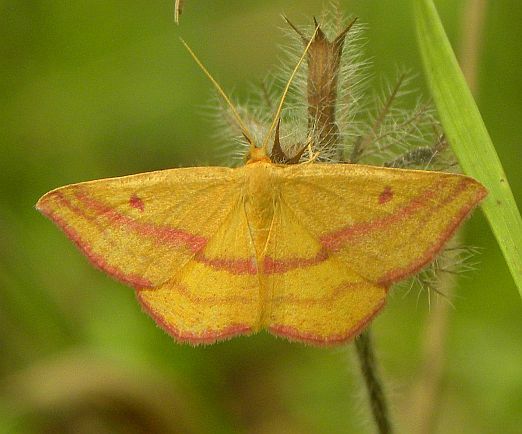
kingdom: Animalia
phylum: Arthropoda
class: Insecta
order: Lepidoptera
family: Geometridae
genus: Haematopis
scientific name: Haematopis grataria
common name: Chickweed geometer
